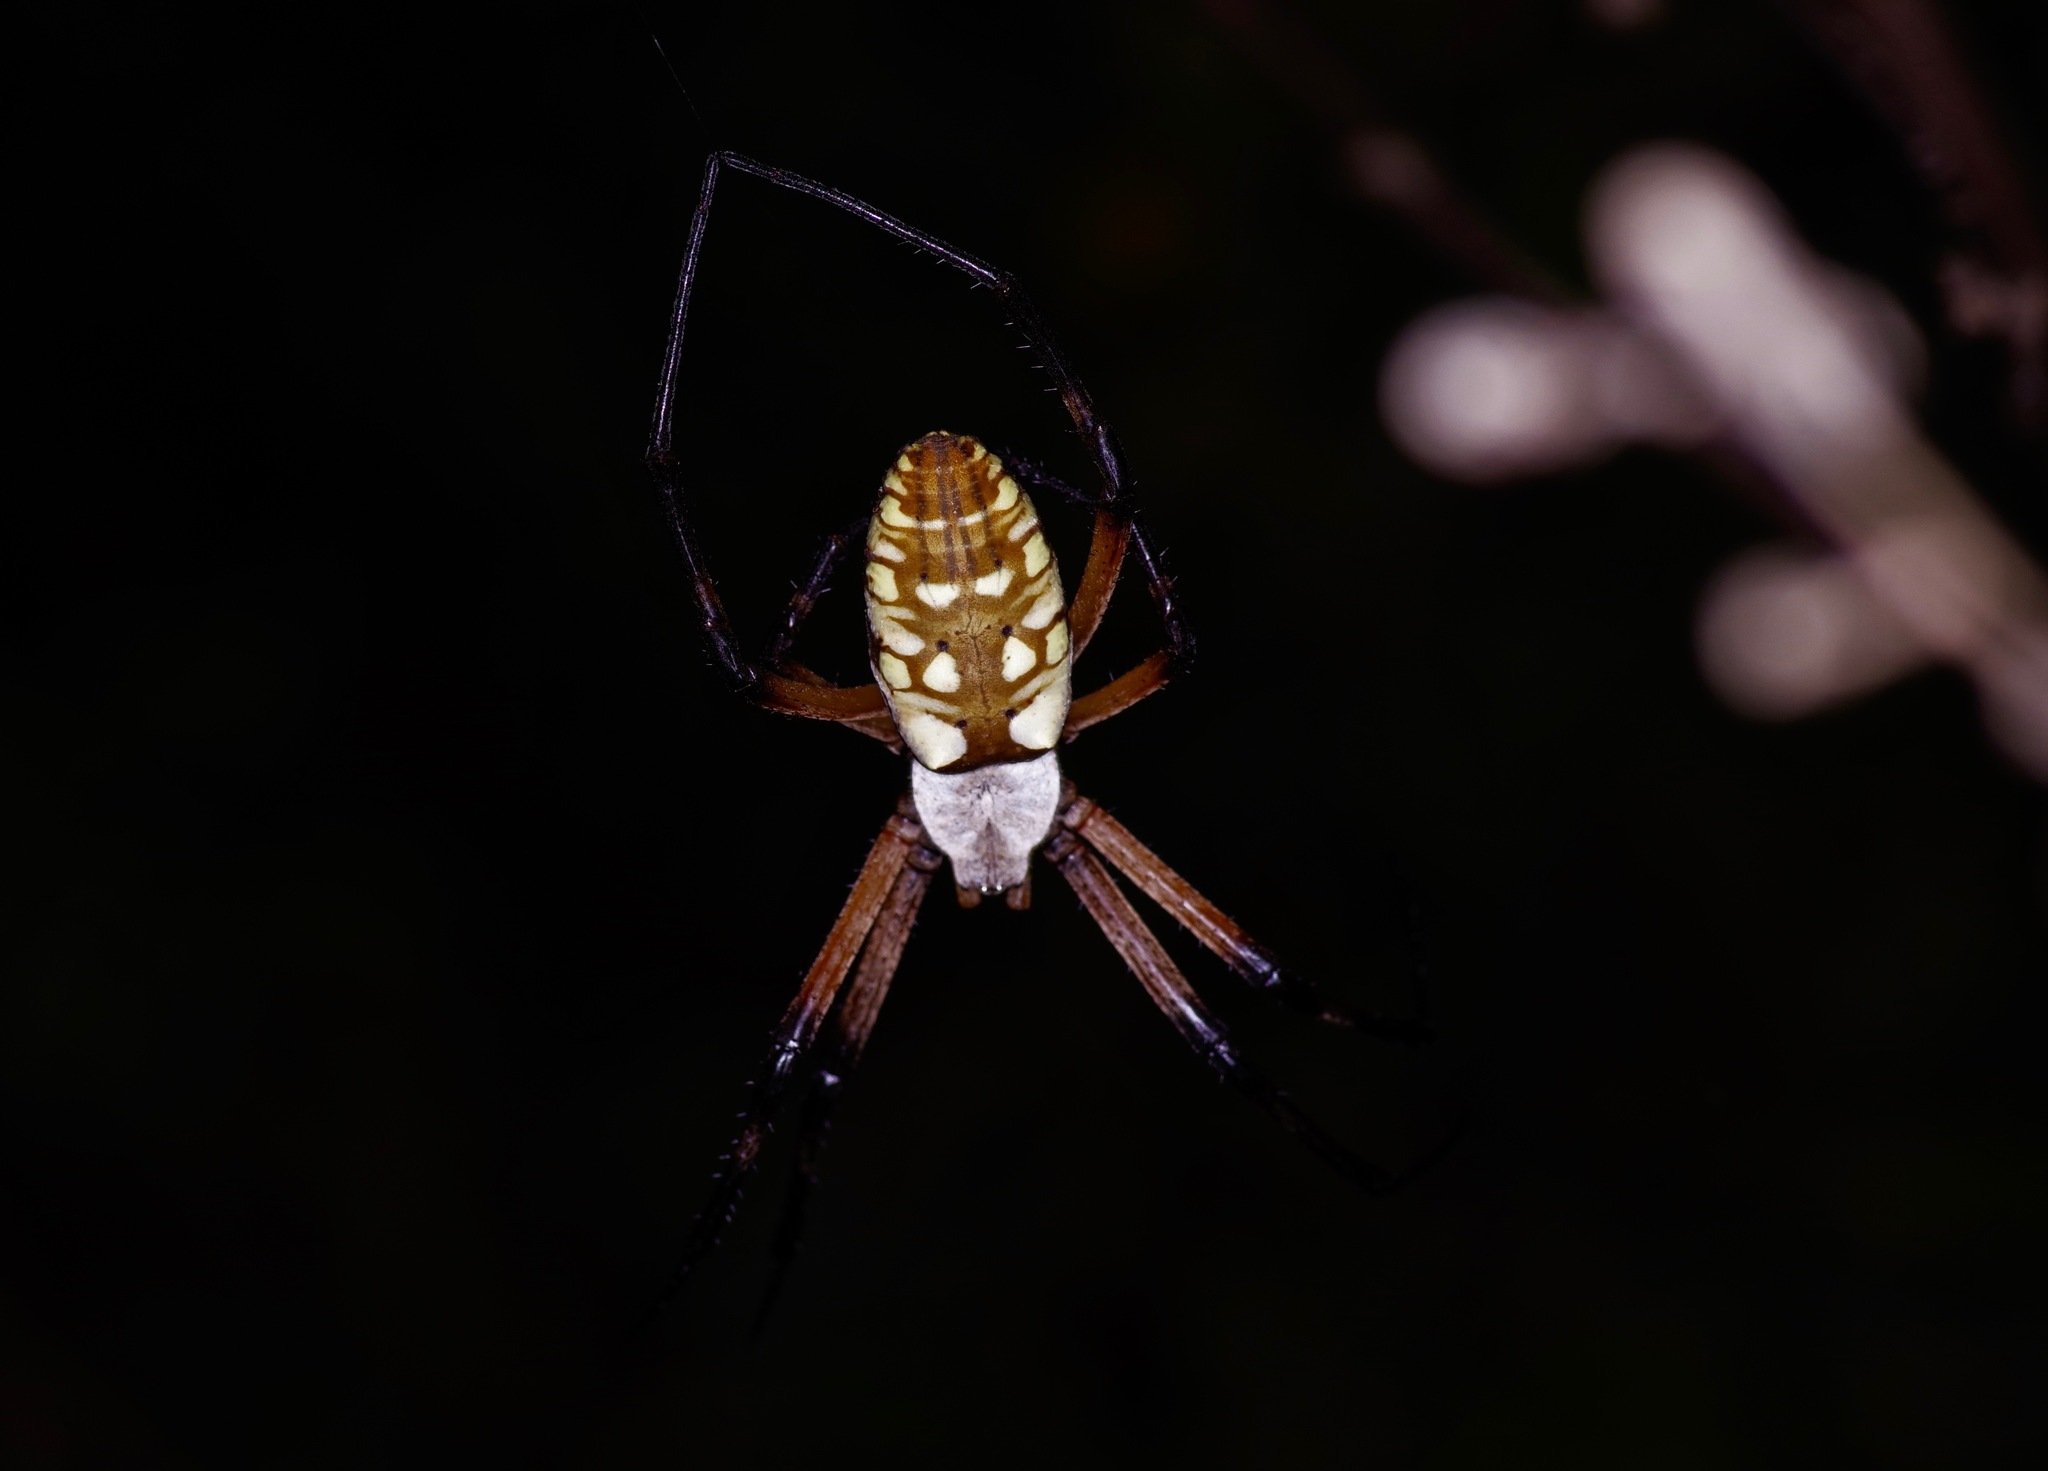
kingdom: Animalia
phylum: Arthropoda
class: Arachnida
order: Araneae
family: Araneidae
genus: Argiope
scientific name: Argiope aurantia
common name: Orb weavers
